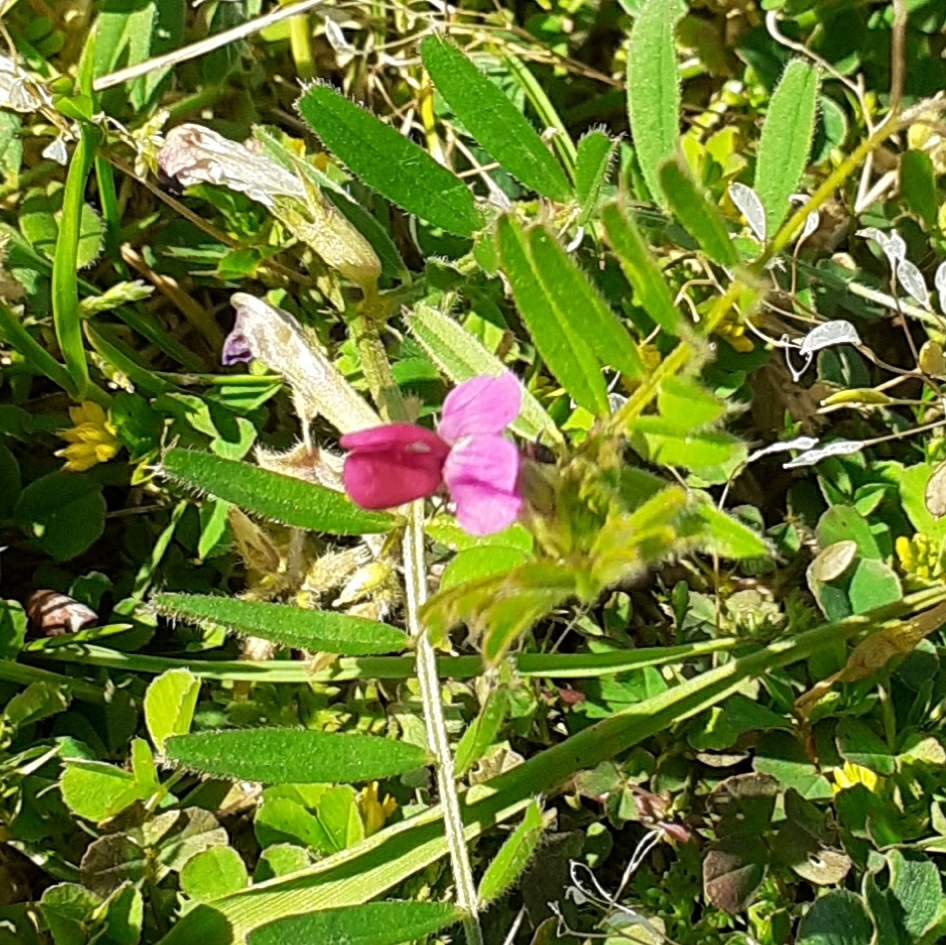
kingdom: Plantae
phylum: Tracheophyta
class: Magnoliopsida
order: Fabales
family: Fabaceae
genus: Vicia
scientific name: Vicia sativa
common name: Garden vetch
